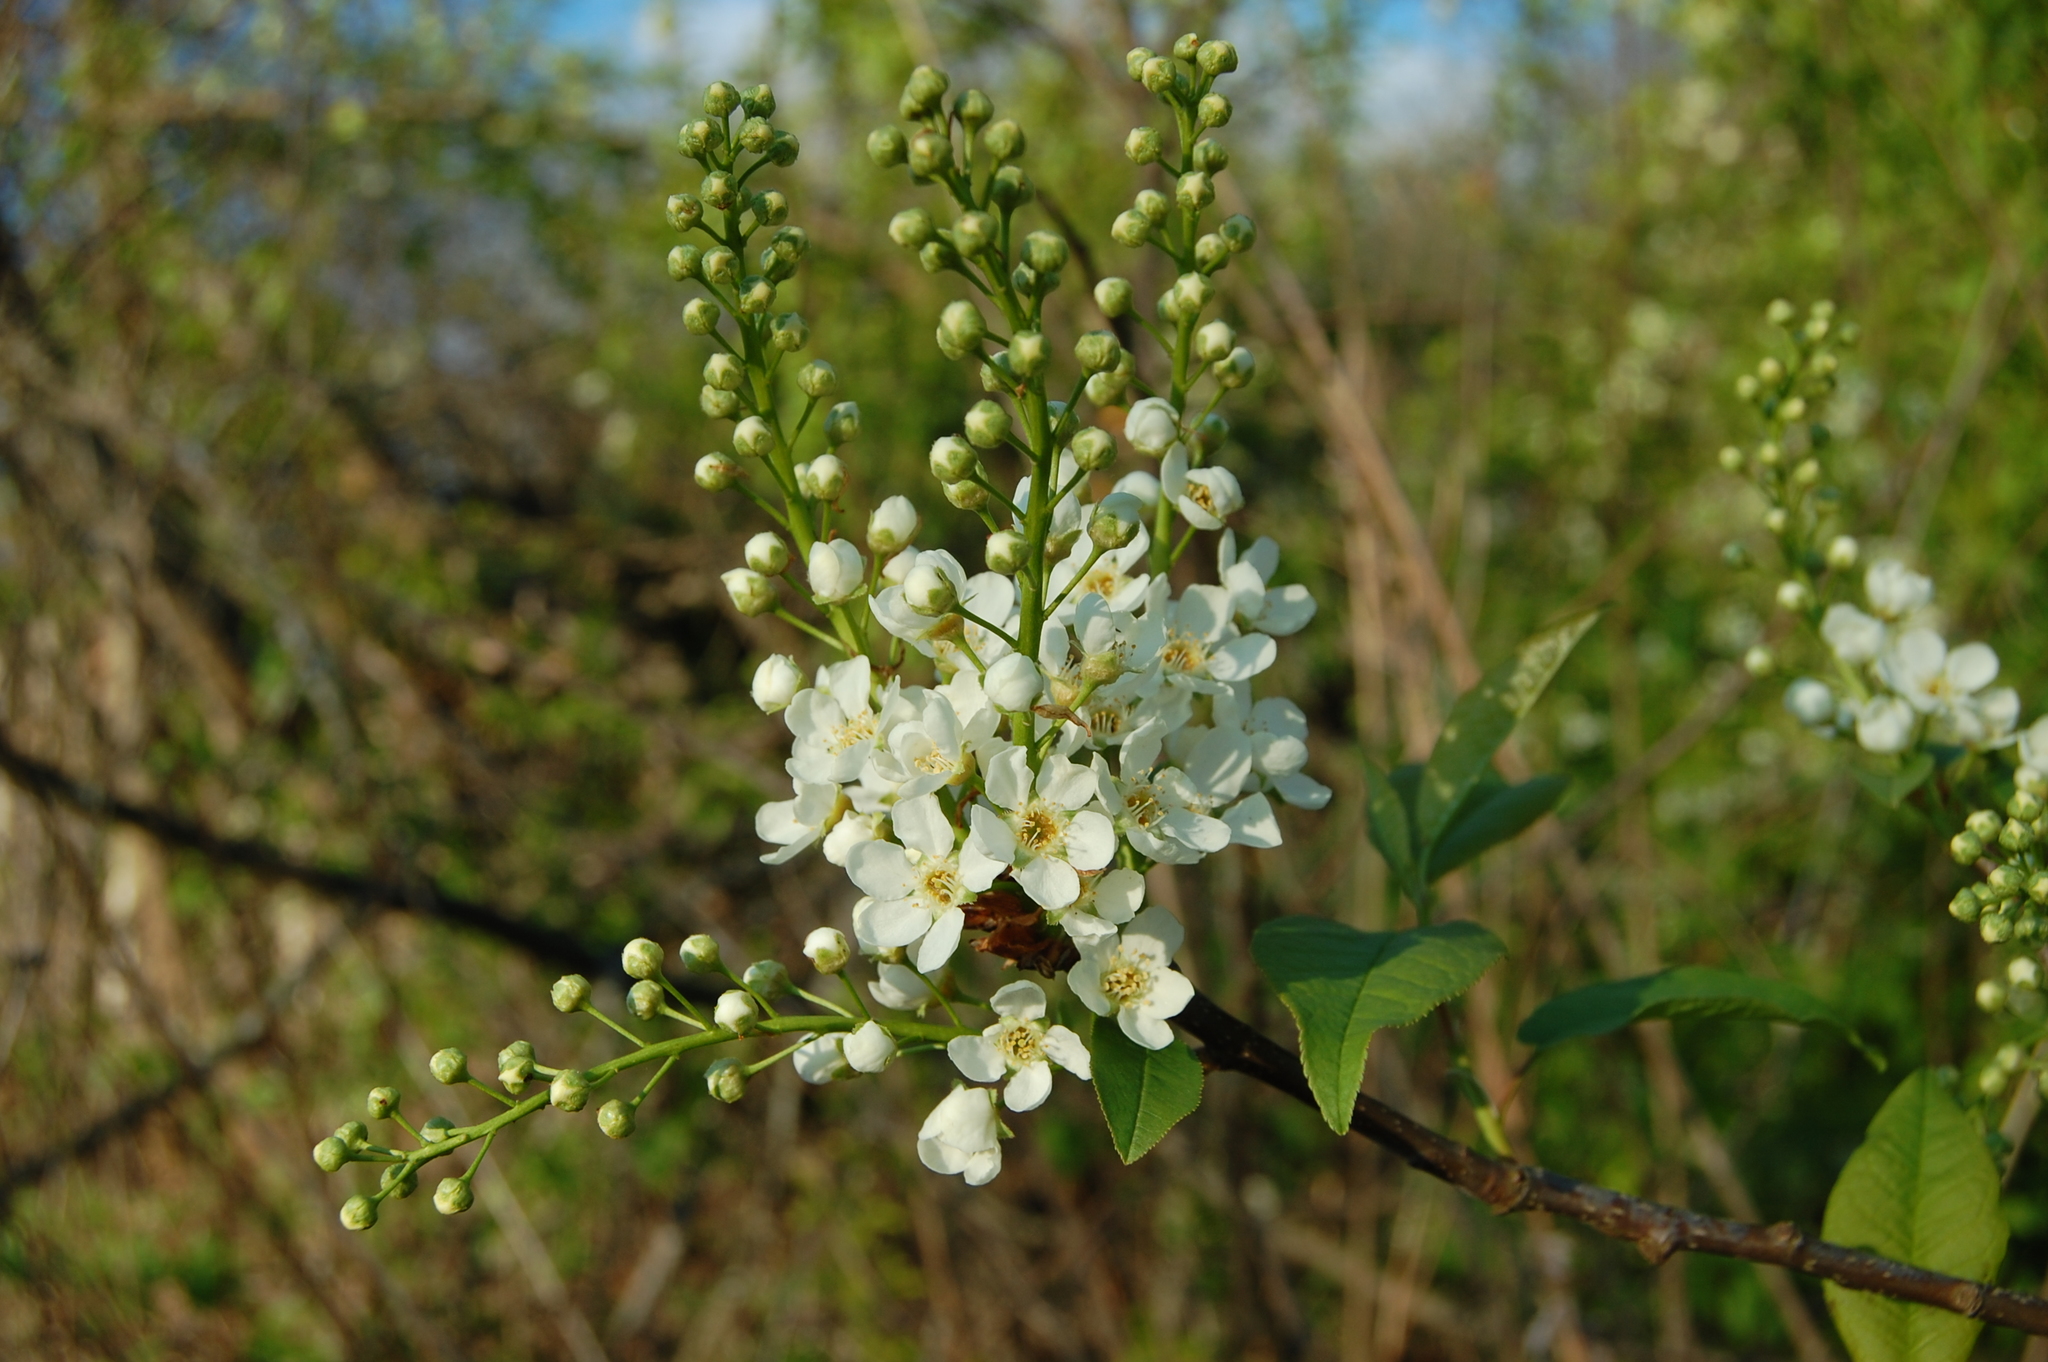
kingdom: Plantae
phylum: Tracheophyta
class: Magnoliopsida
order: Rosales
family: Rosaceae
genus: Prunus
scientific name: Prunus padus
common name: Bird cherry
